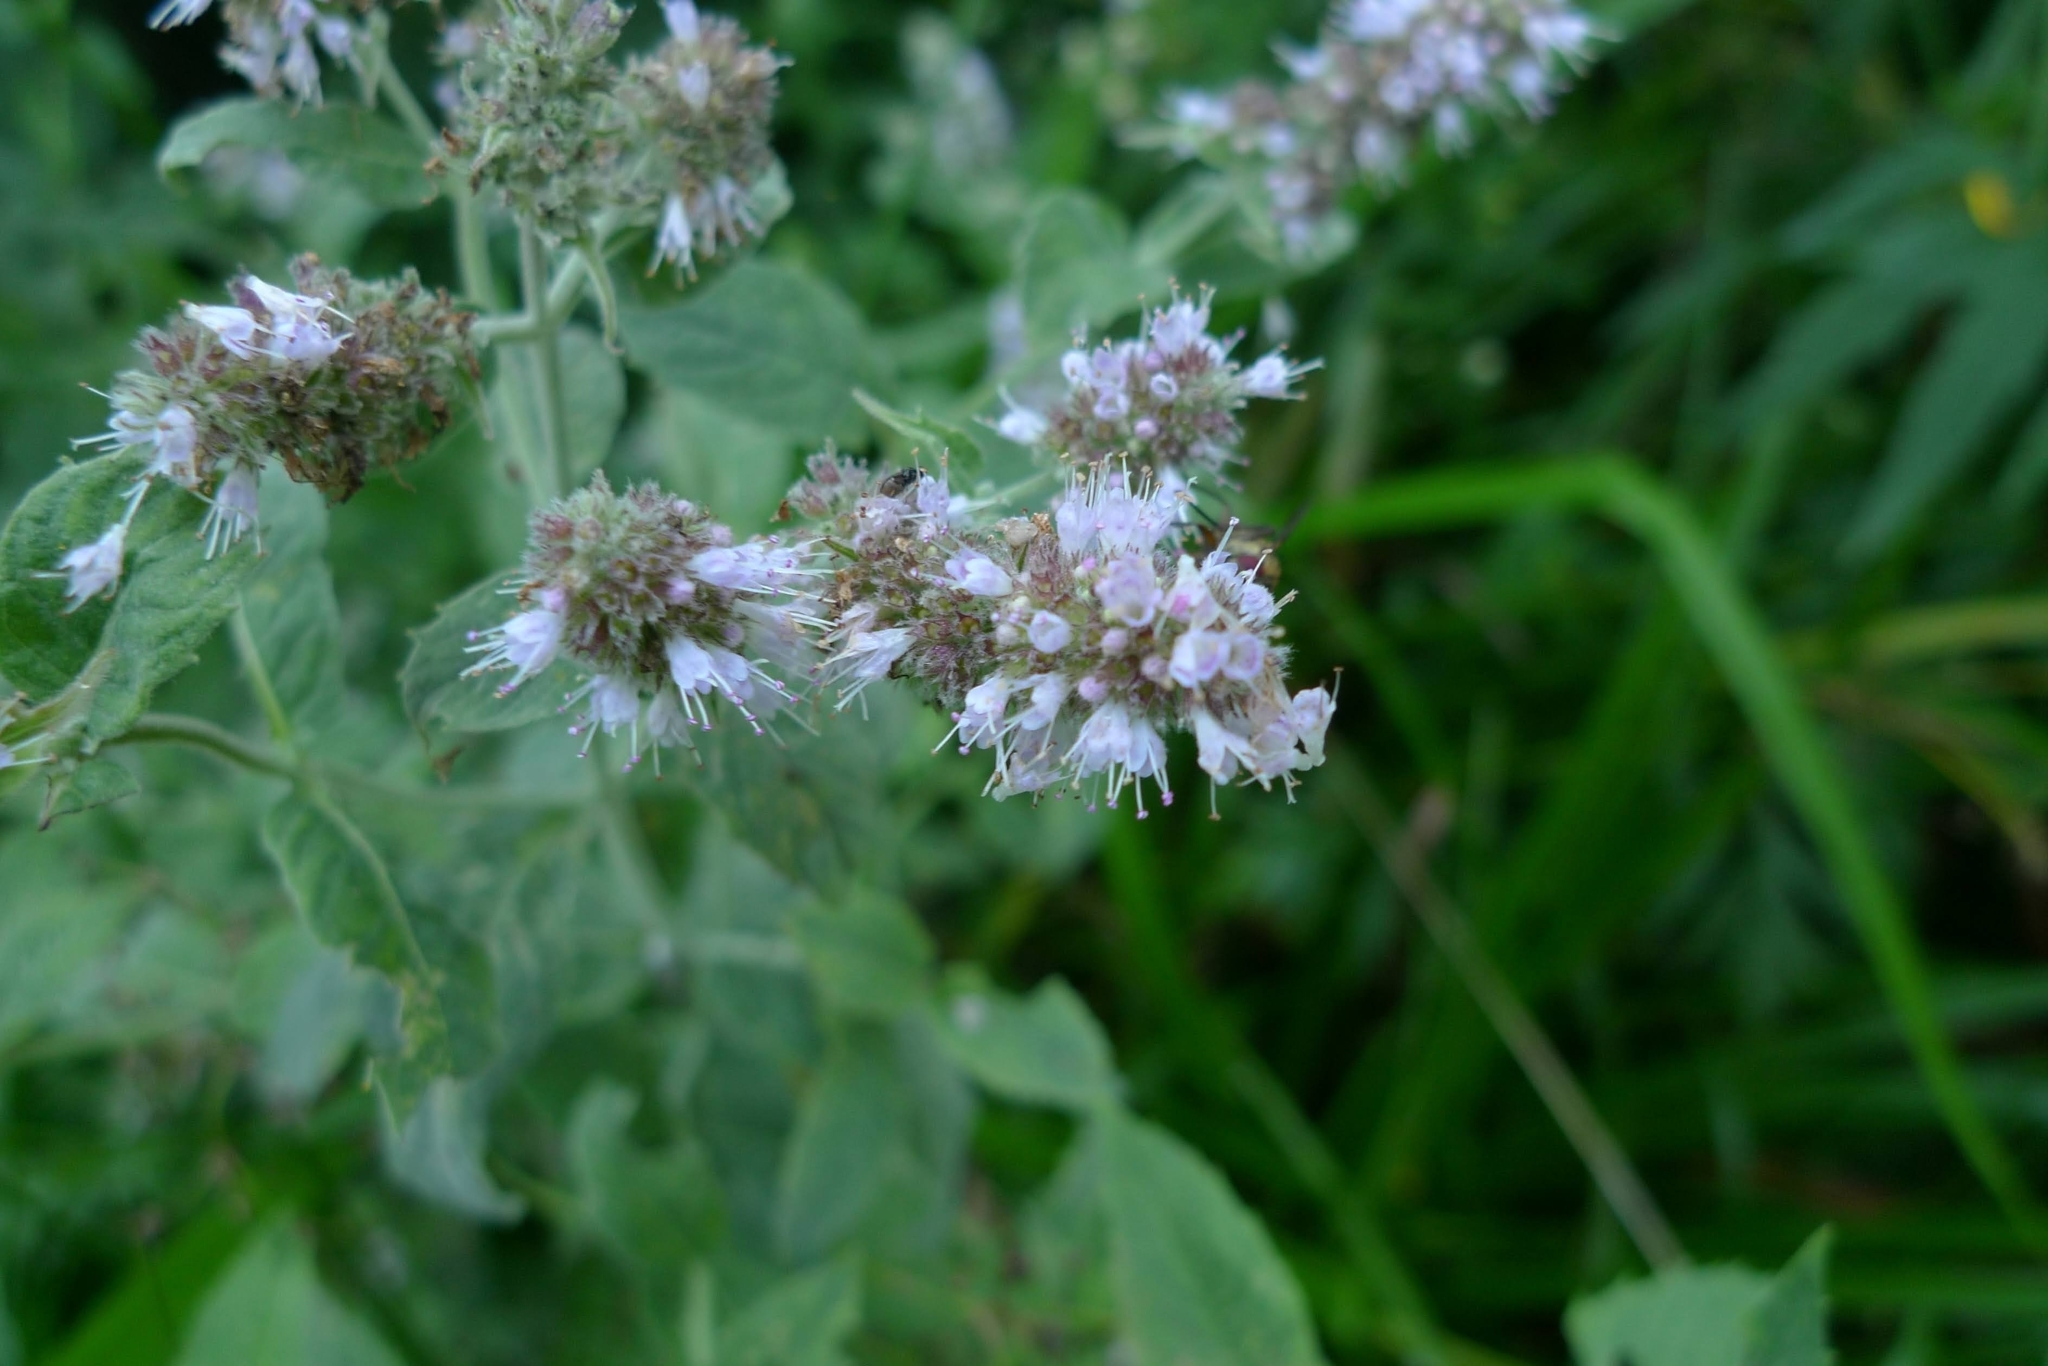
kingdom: Plantae
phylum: Tracheophyta
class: Magnoliopsida
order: Lamiales
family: Lamiaceae
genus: Mentha
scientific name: Mentha longifolia
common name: Horse mint
